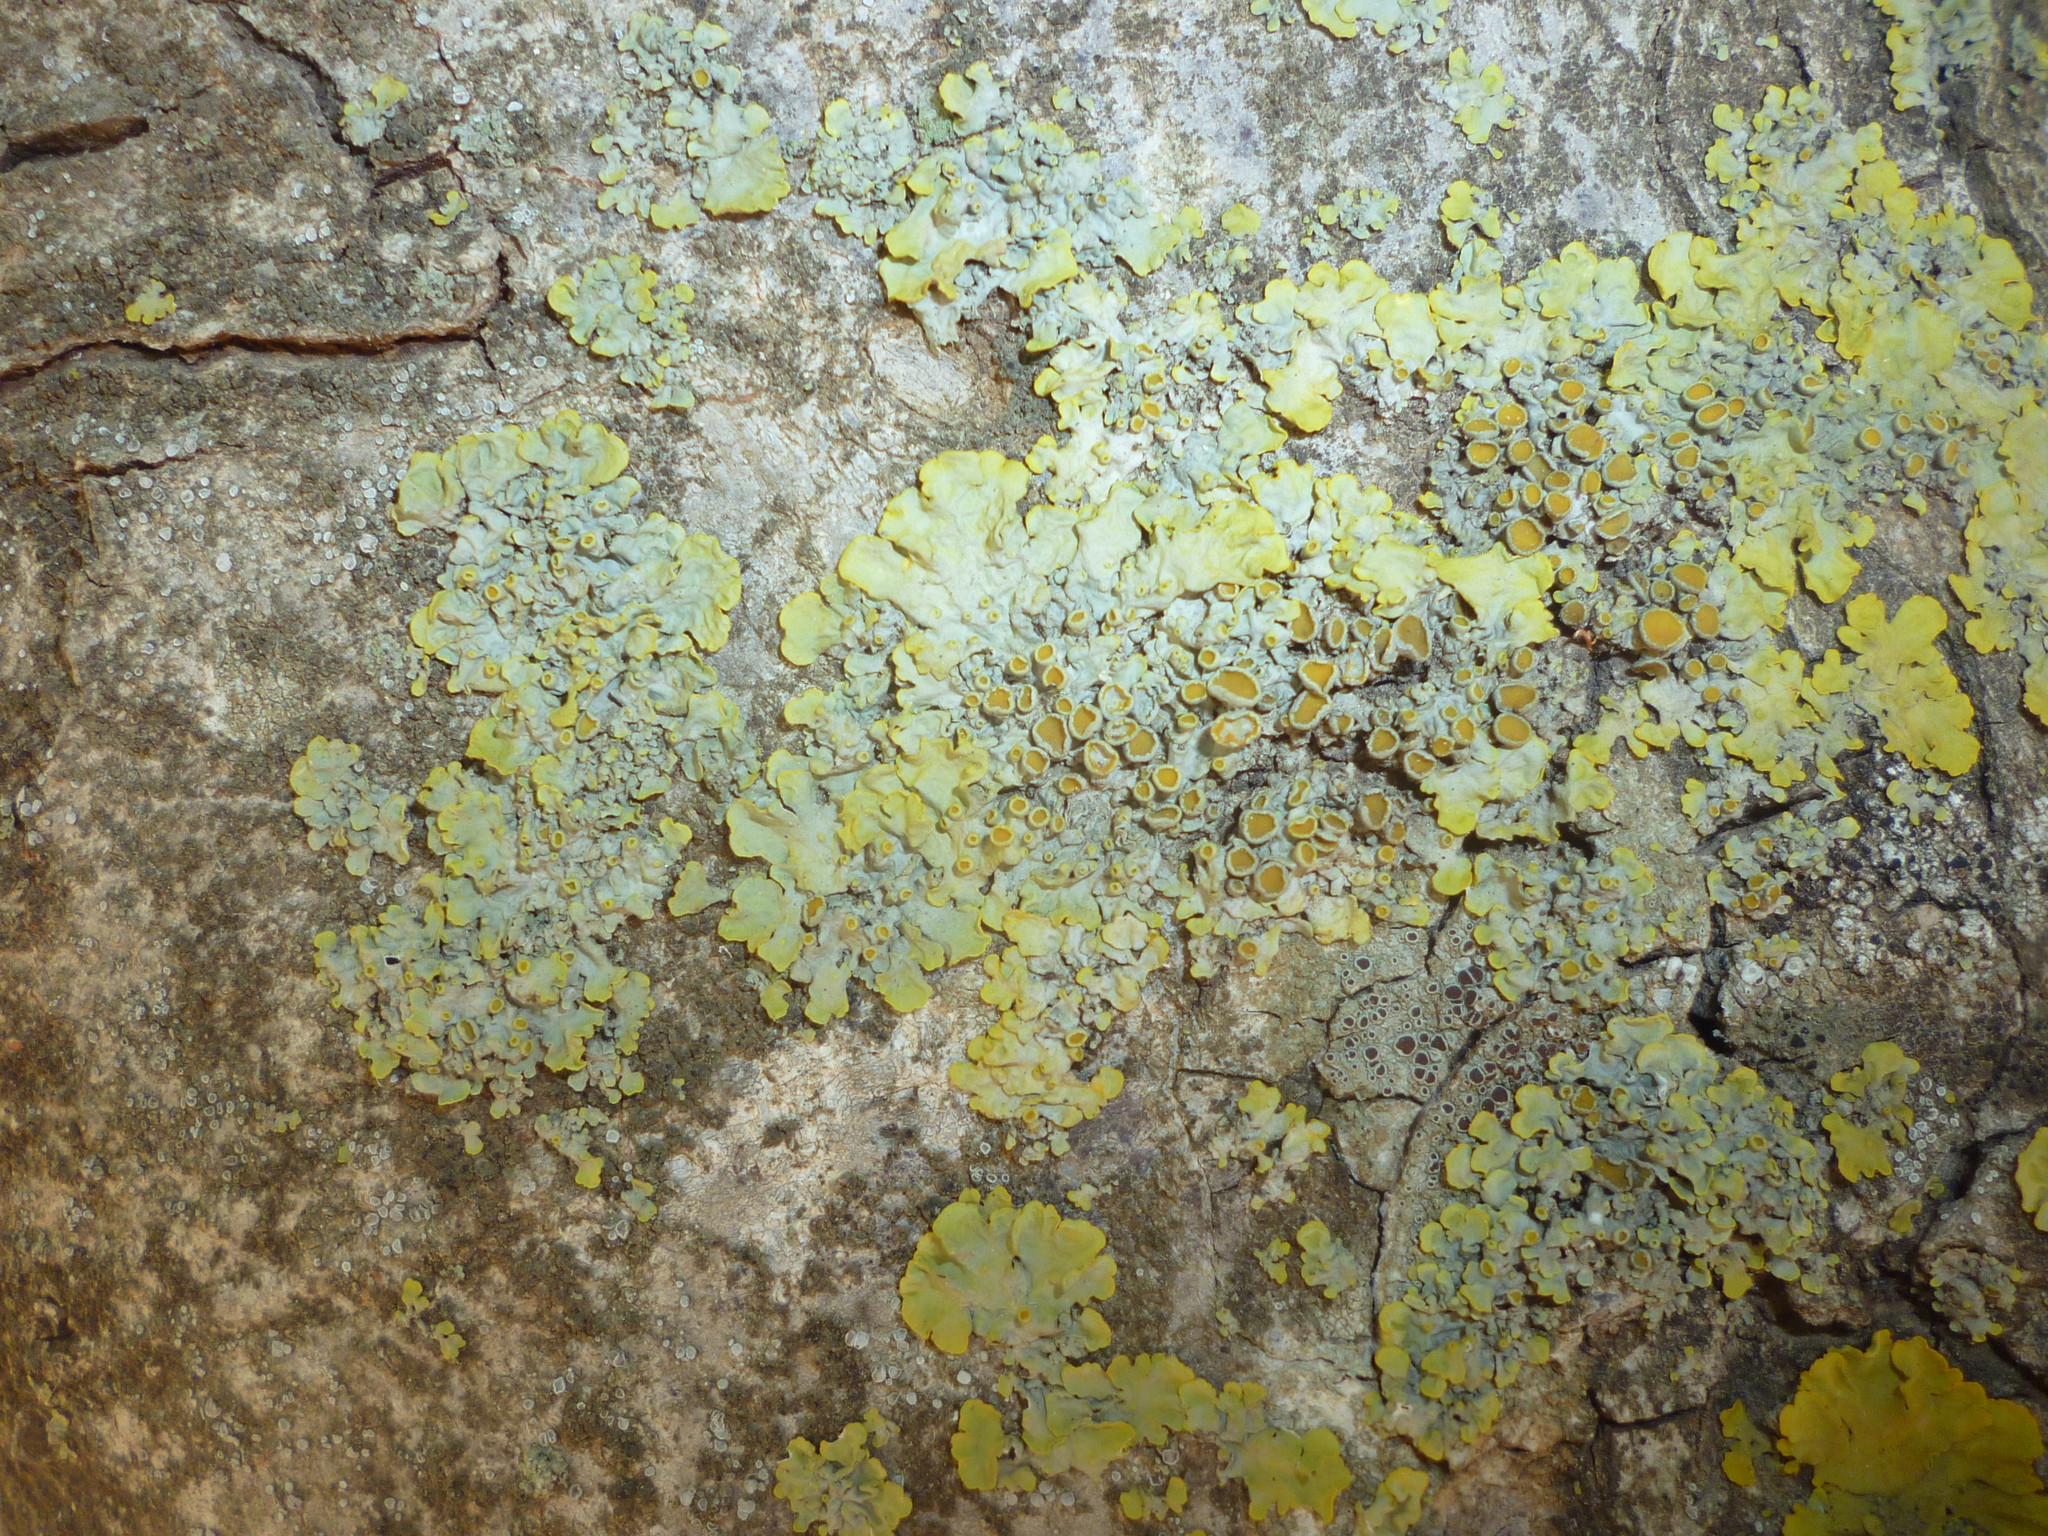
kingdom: Fungi
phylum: Ascomycota
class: Lecanoromycetes
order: Teloschistales
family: Teloschistaceae
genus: Xanthoria
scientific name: Xanthoria parietina
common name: Common orange lichen
